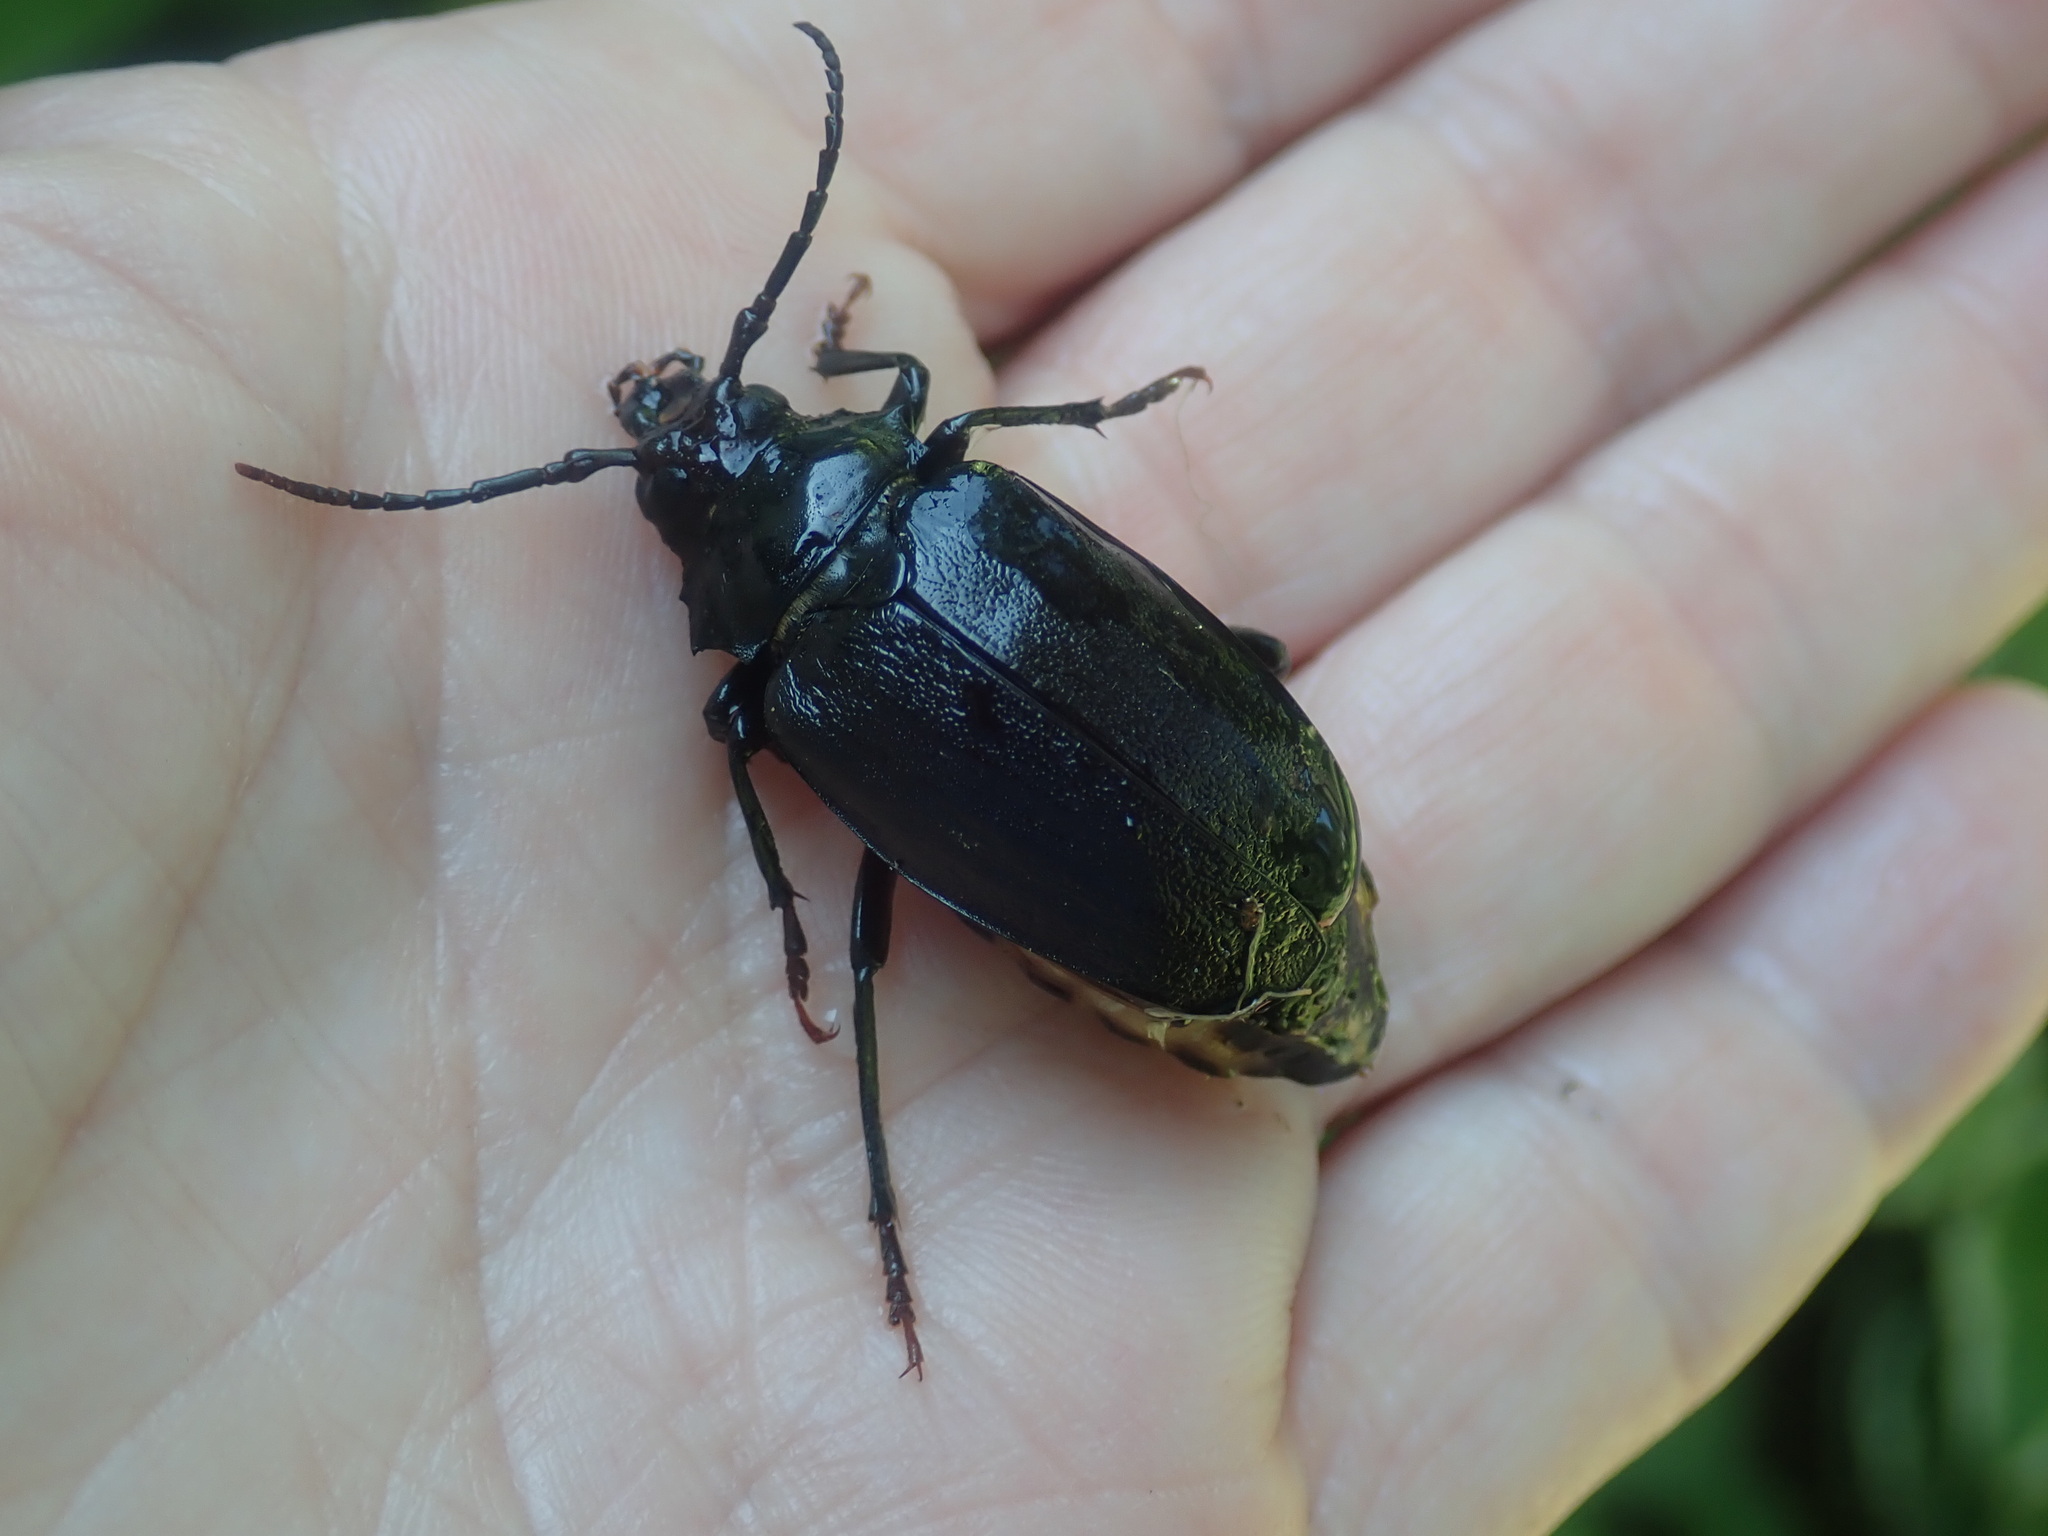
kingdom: Animalia
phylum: Arthropoda
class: Insecta
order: Coleoptera
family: Cerambycidae
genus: Prionus
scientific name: Prionus laticollis
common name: Broad necked prionus
